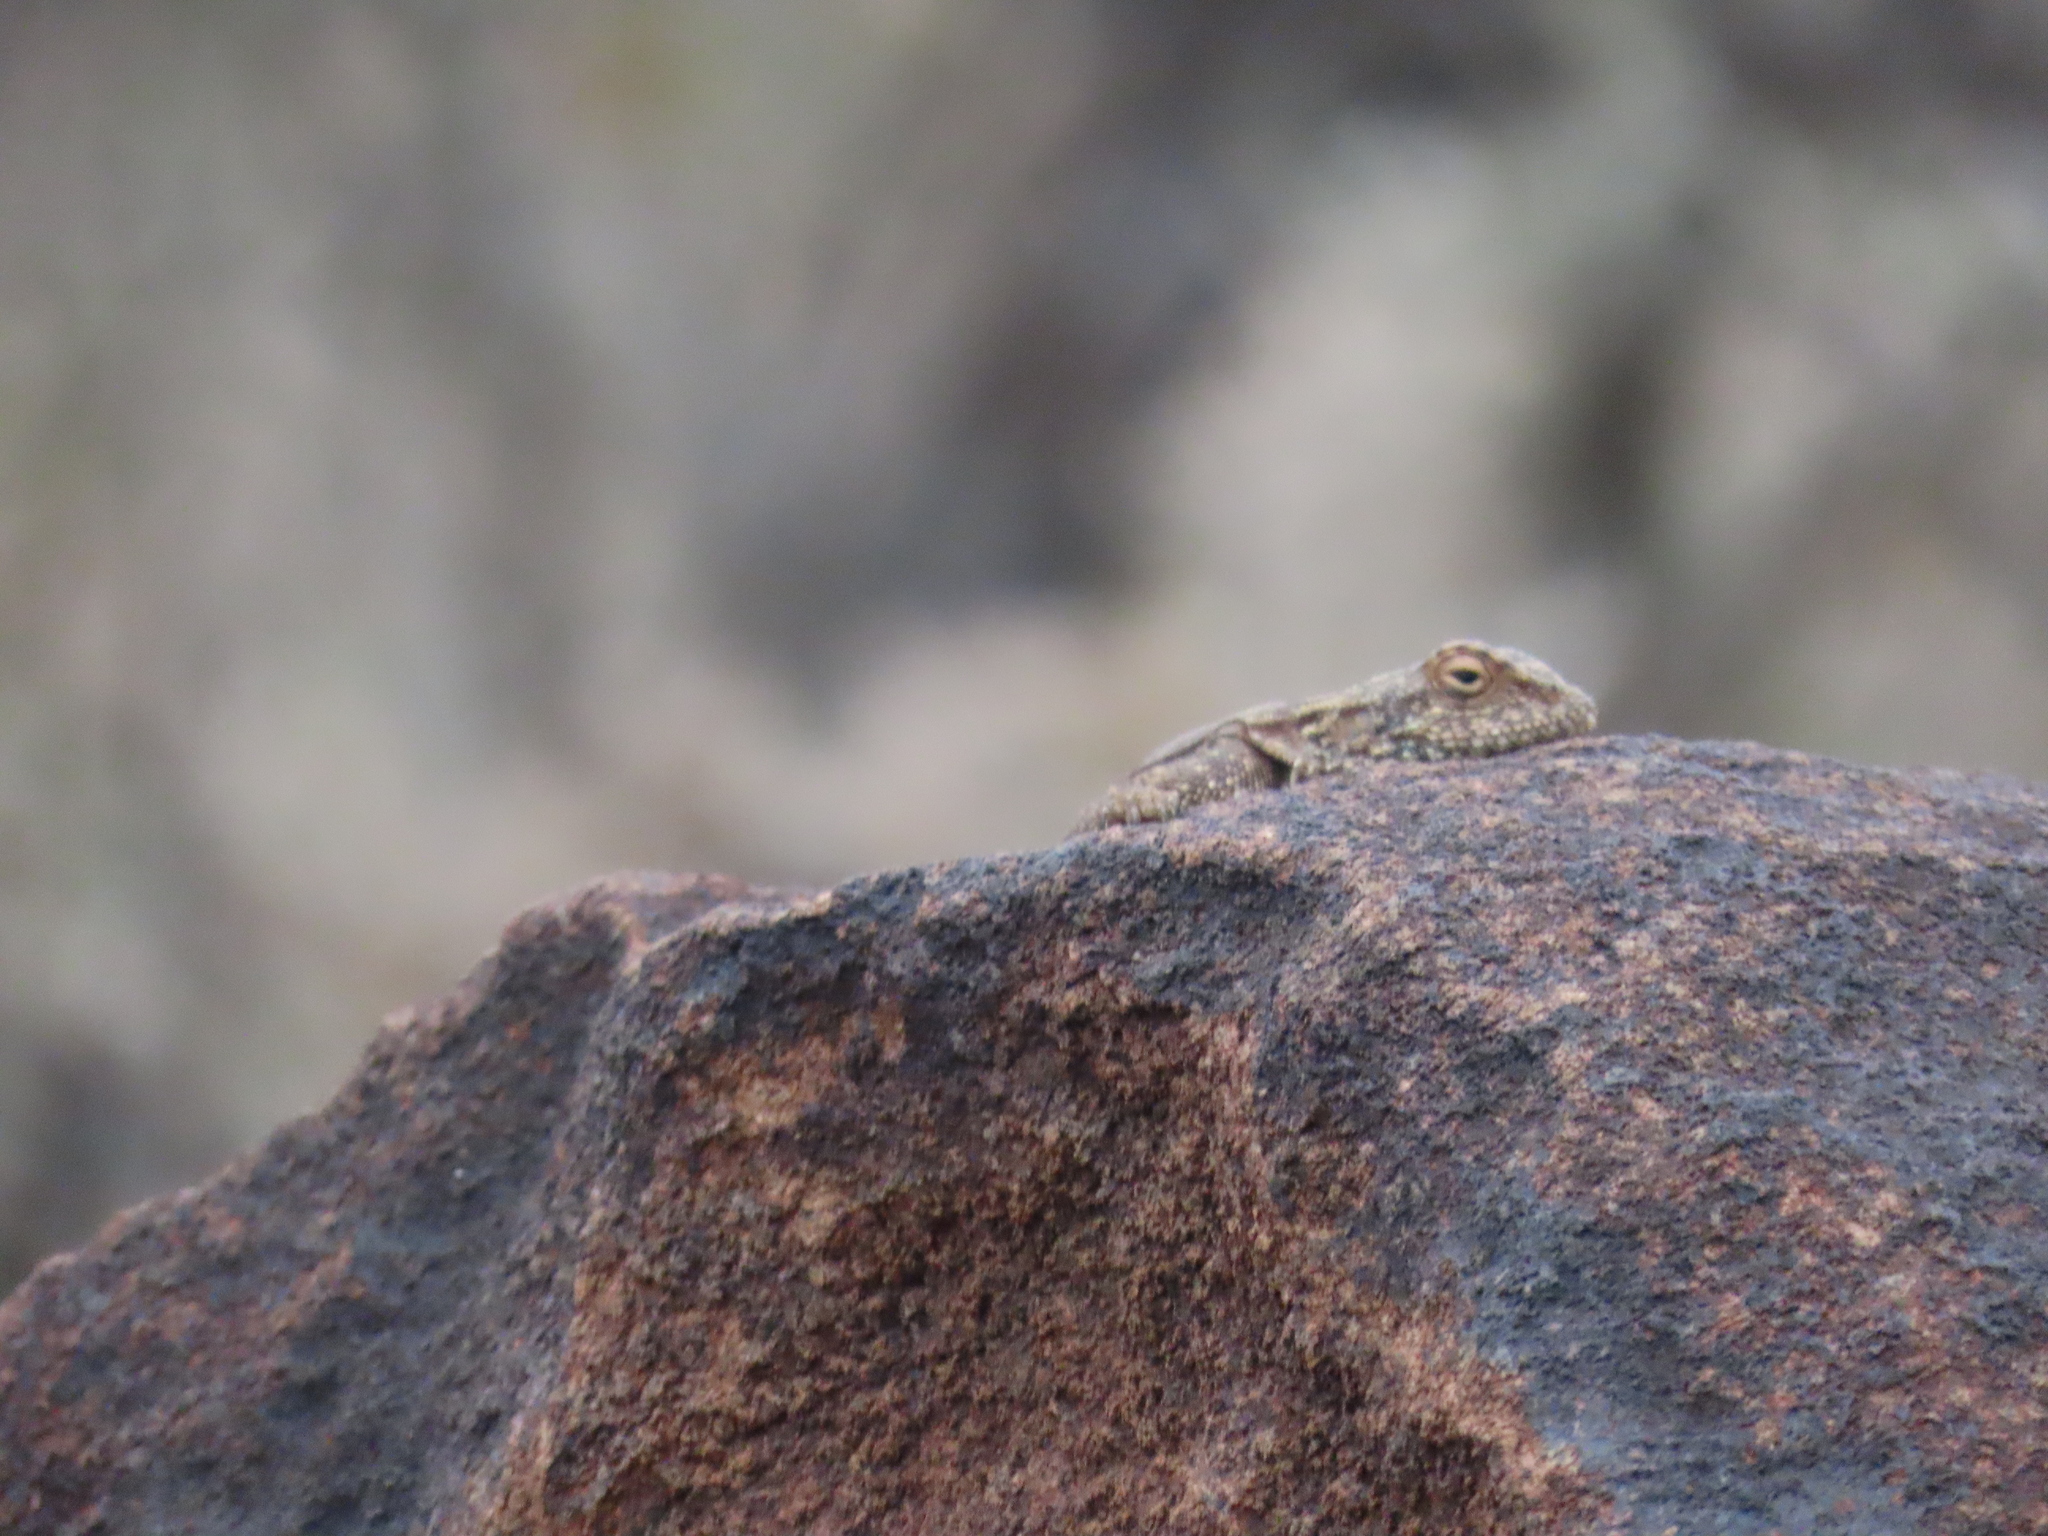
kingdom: Animalia
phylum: Chordata
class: Squamata
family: Agamidae
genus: Agama
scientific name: Agama atra
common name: Southern african rock agama
